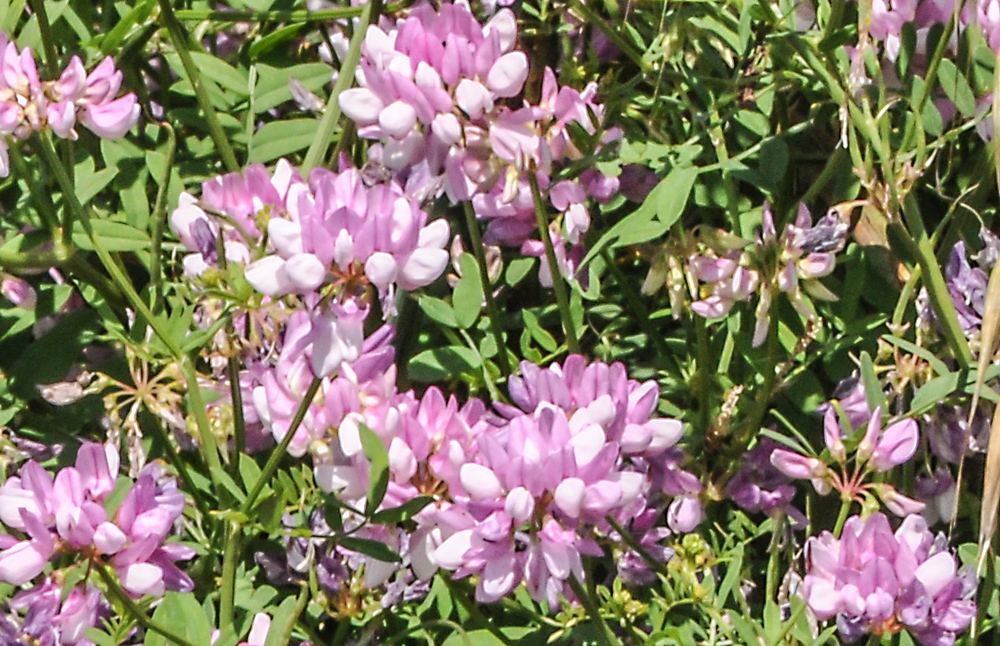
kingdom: Plantae
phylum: Tracheophyta
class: Magnoliopsida
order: Fabales
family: Fabaceae
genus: Coronilla
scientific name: Coronilla varia
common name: Crownvetch
